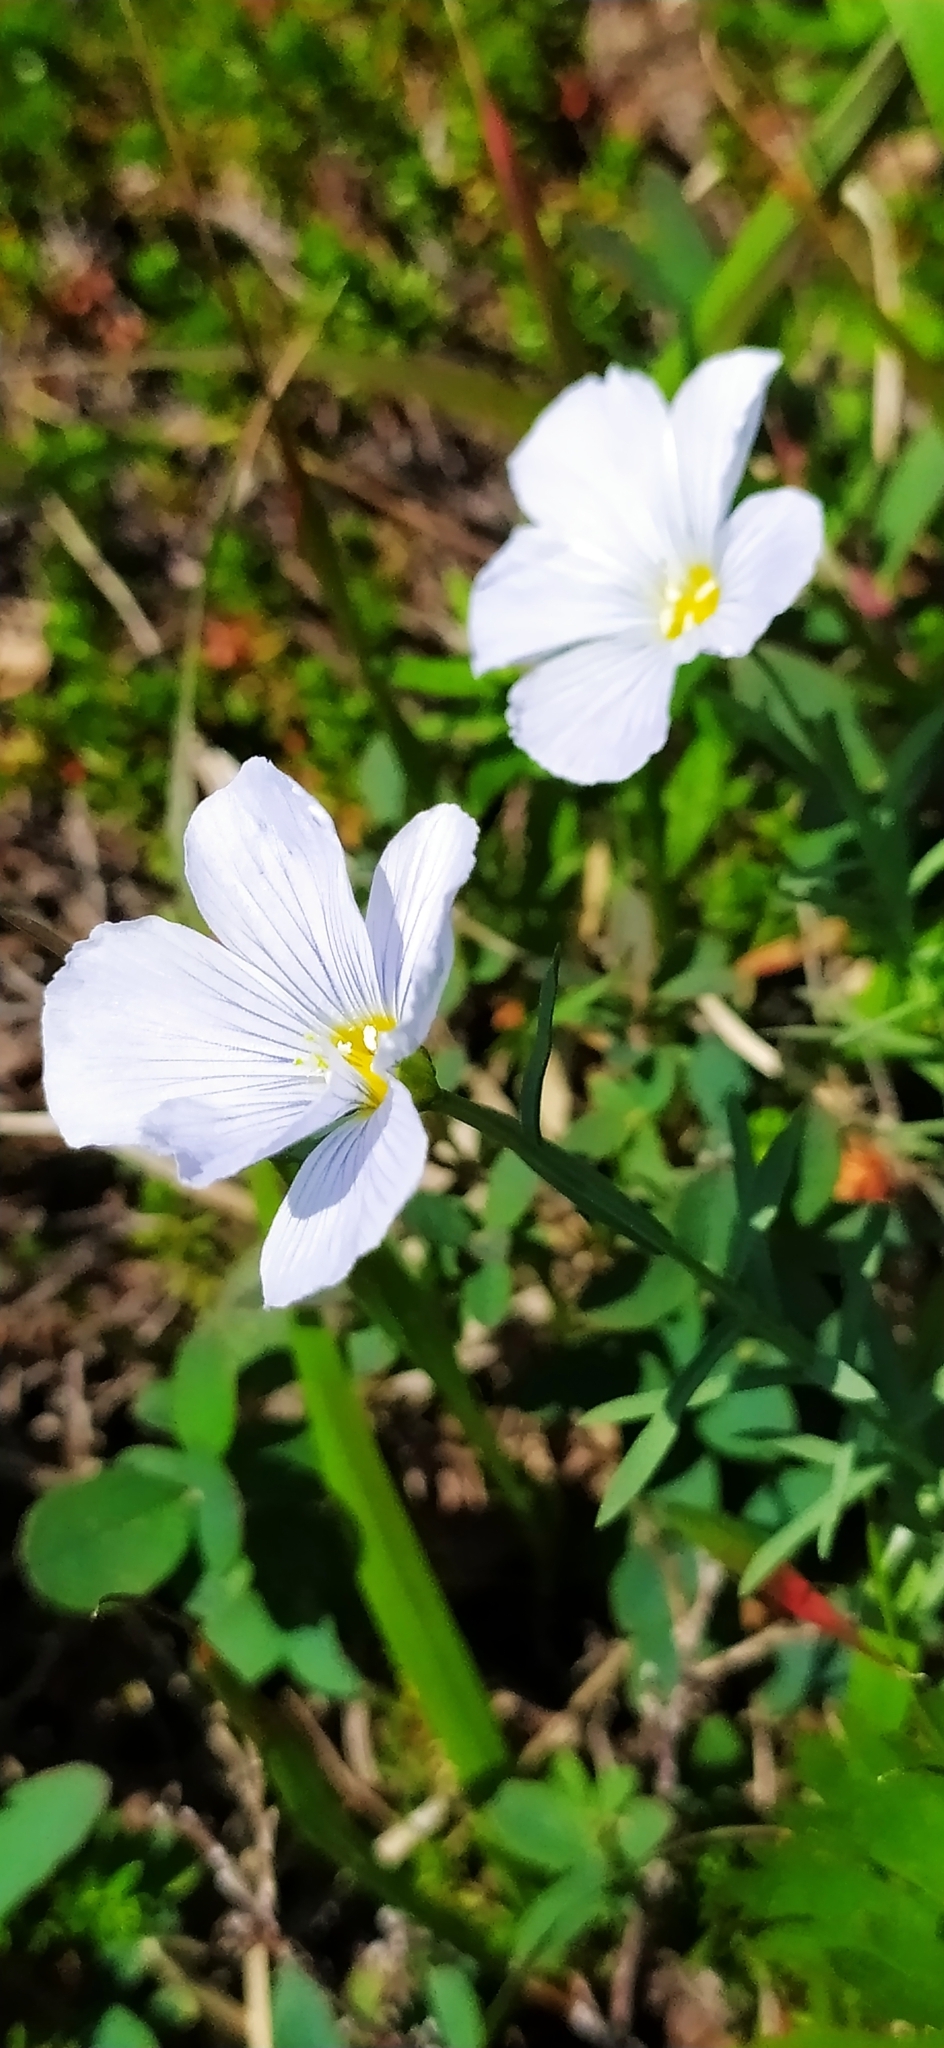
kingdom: Plantae
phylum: Tracheophyta
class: Magnoliopsida
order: Malpighiales
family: Linaceae
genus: Linum
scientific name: Linum komarovii
